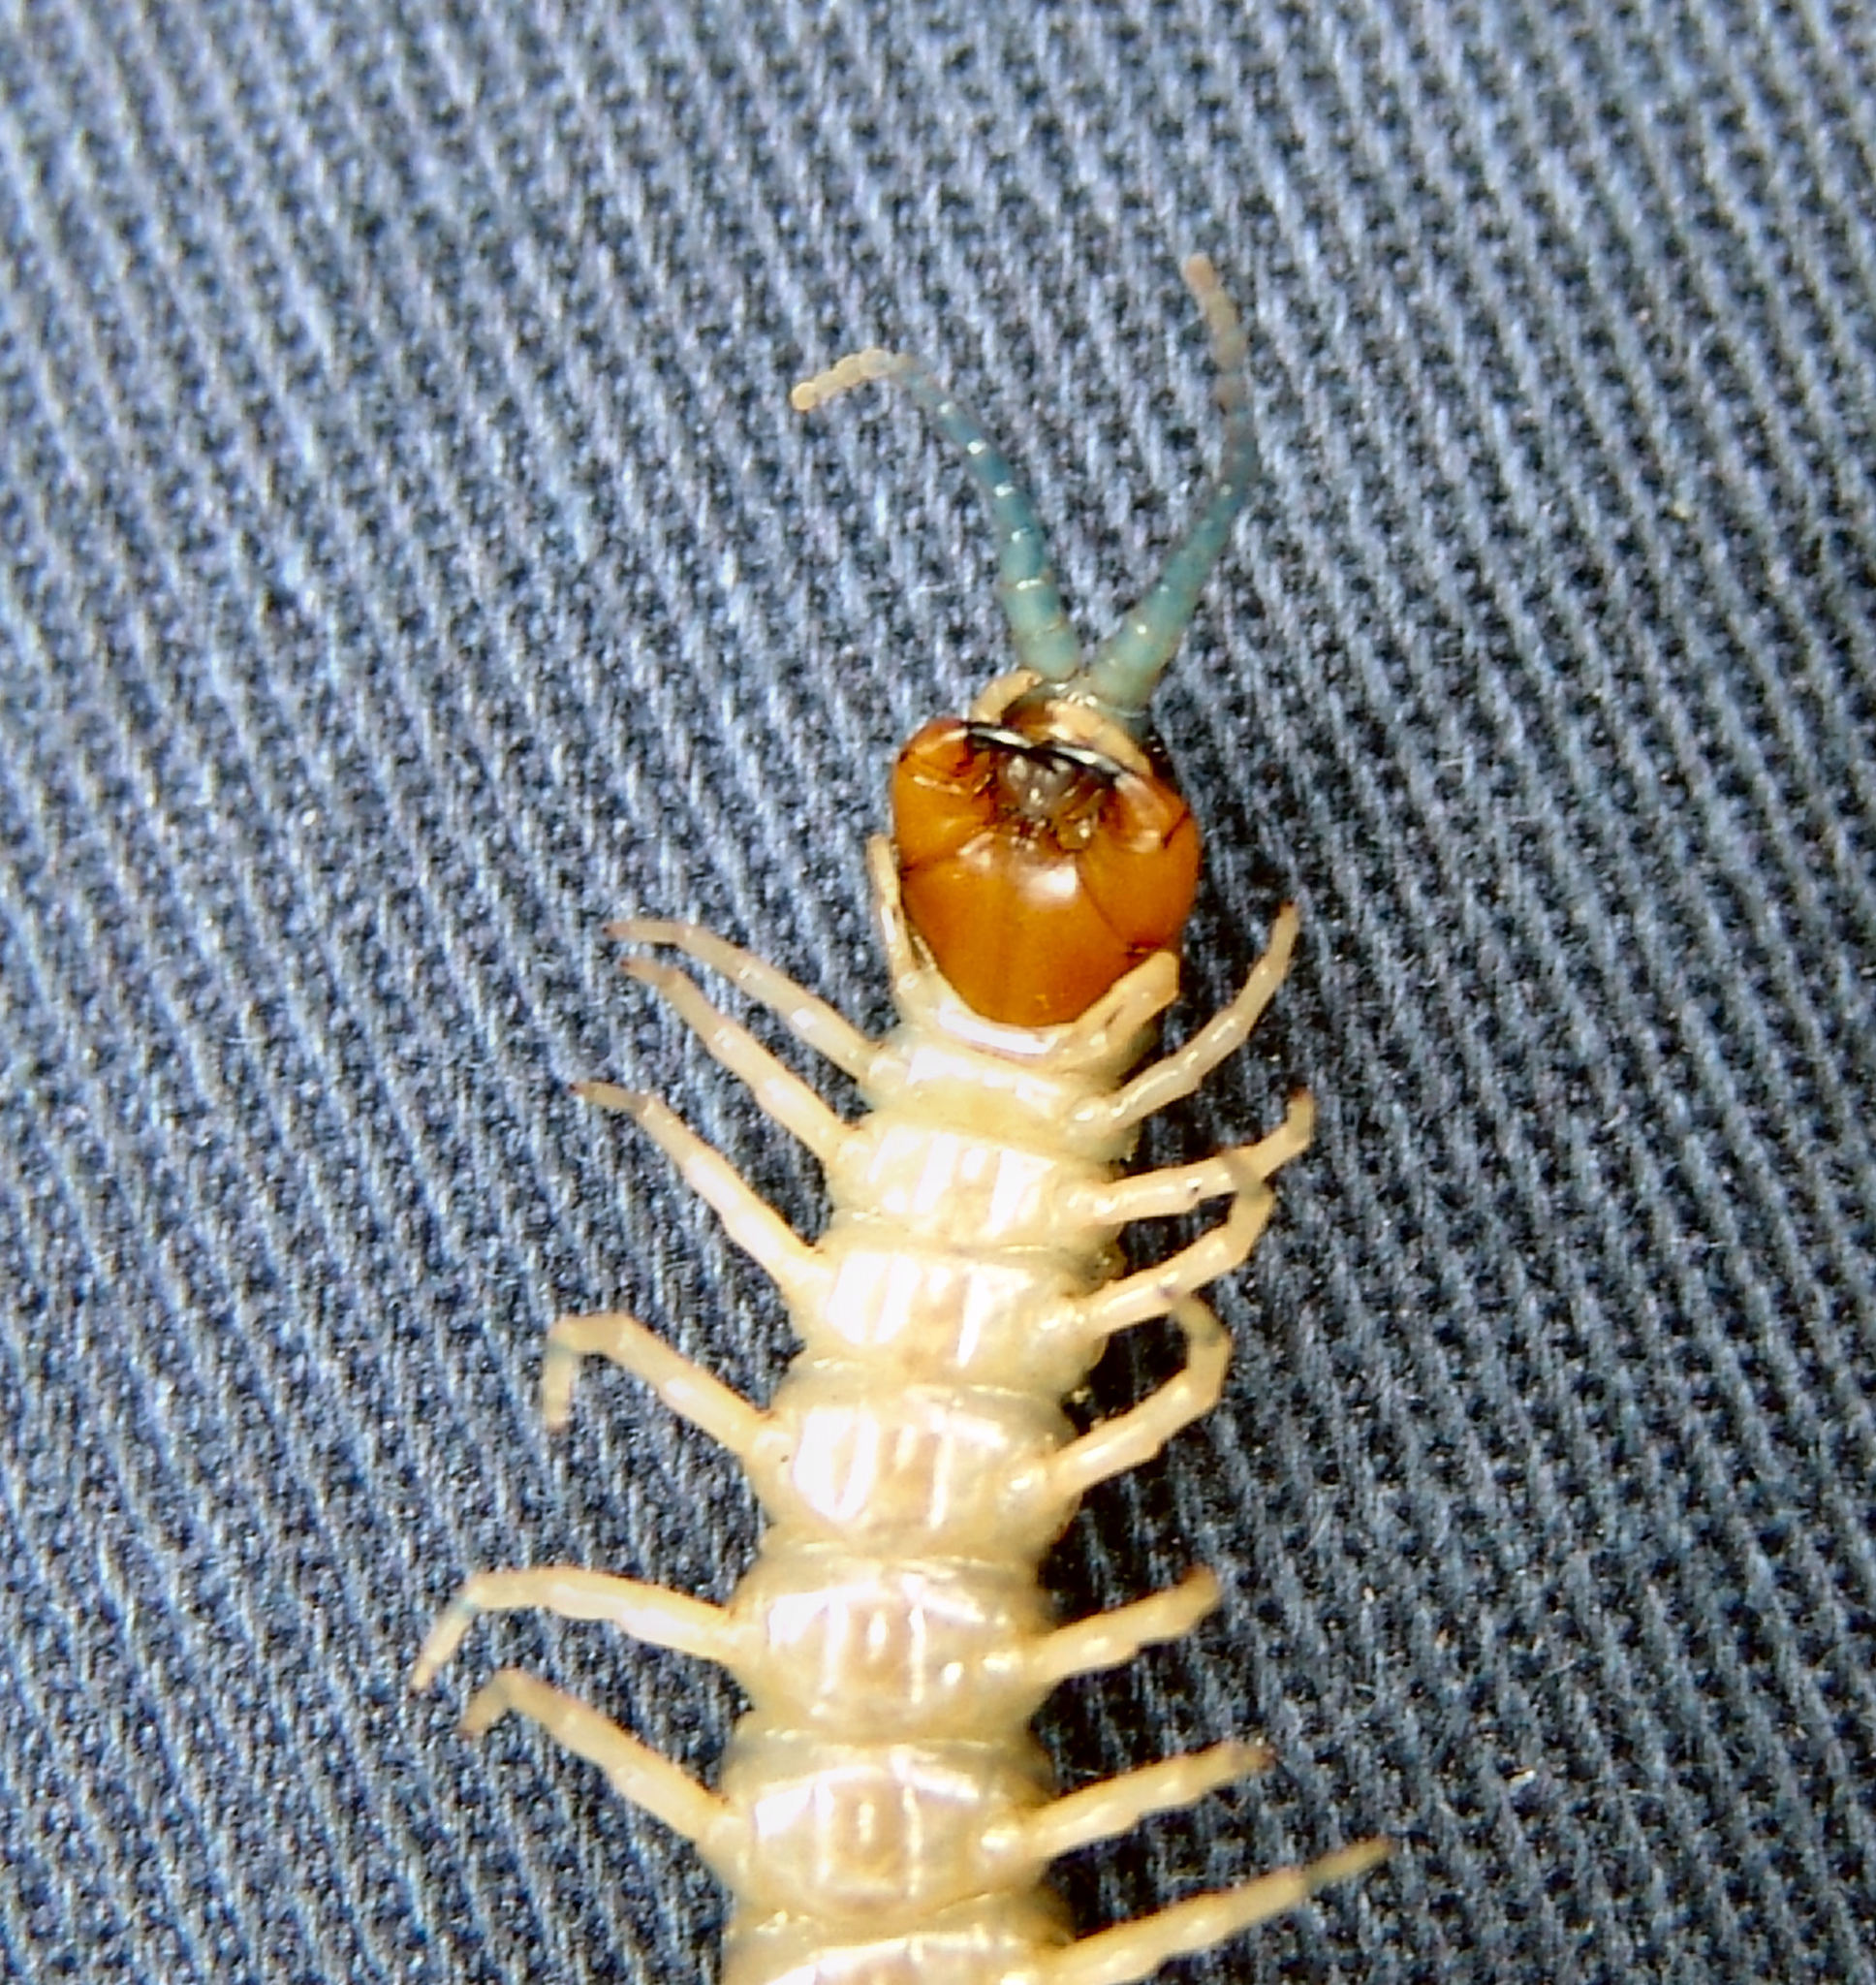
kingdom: Animalia
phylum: Arthropoda
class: Chilopoda
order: Scolopendromorpha
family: Scolopendridae
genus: Hemiscolopendra
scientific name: Hemiscolopendra marginata
